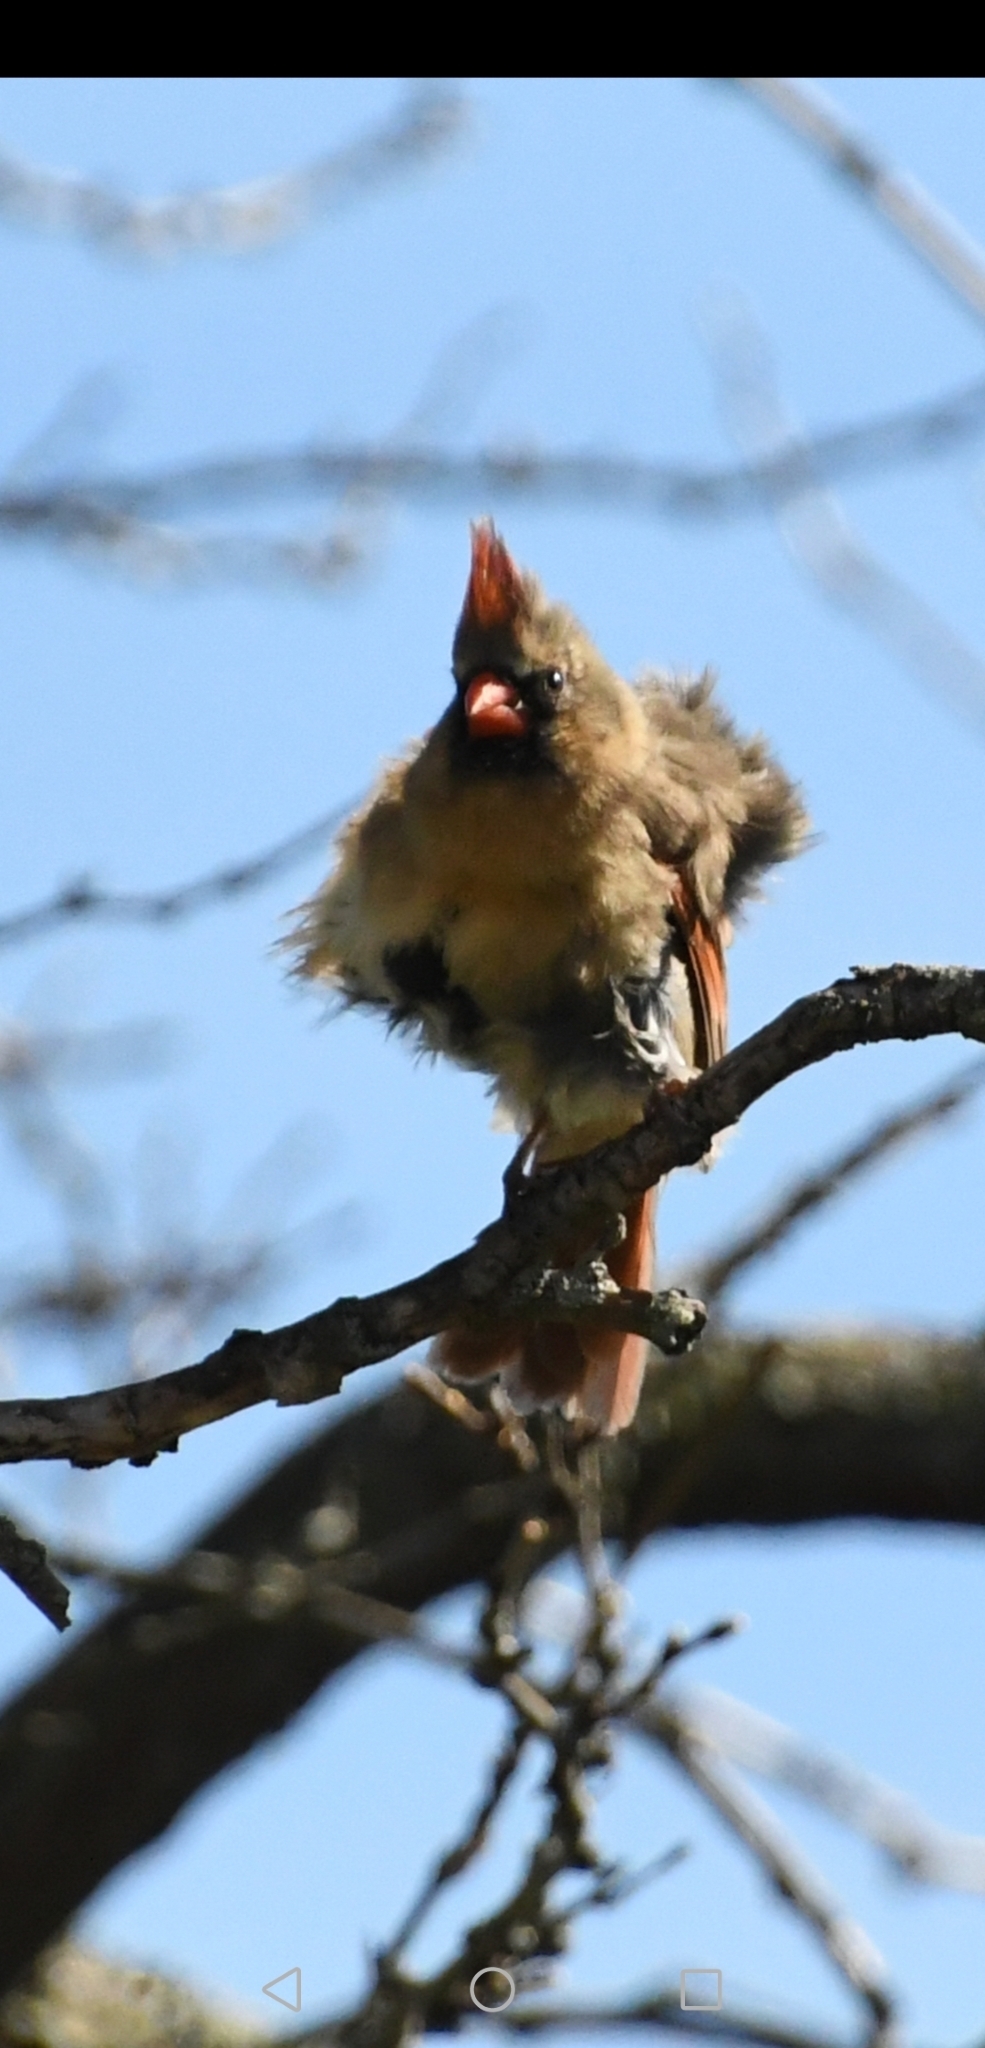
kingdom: Animalia
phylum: Chordata
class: Aves
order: Passeriformes
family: Cardinalidae
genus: Cardinalis
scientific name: Cardinalis cardinalis
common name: Northern cardinal
